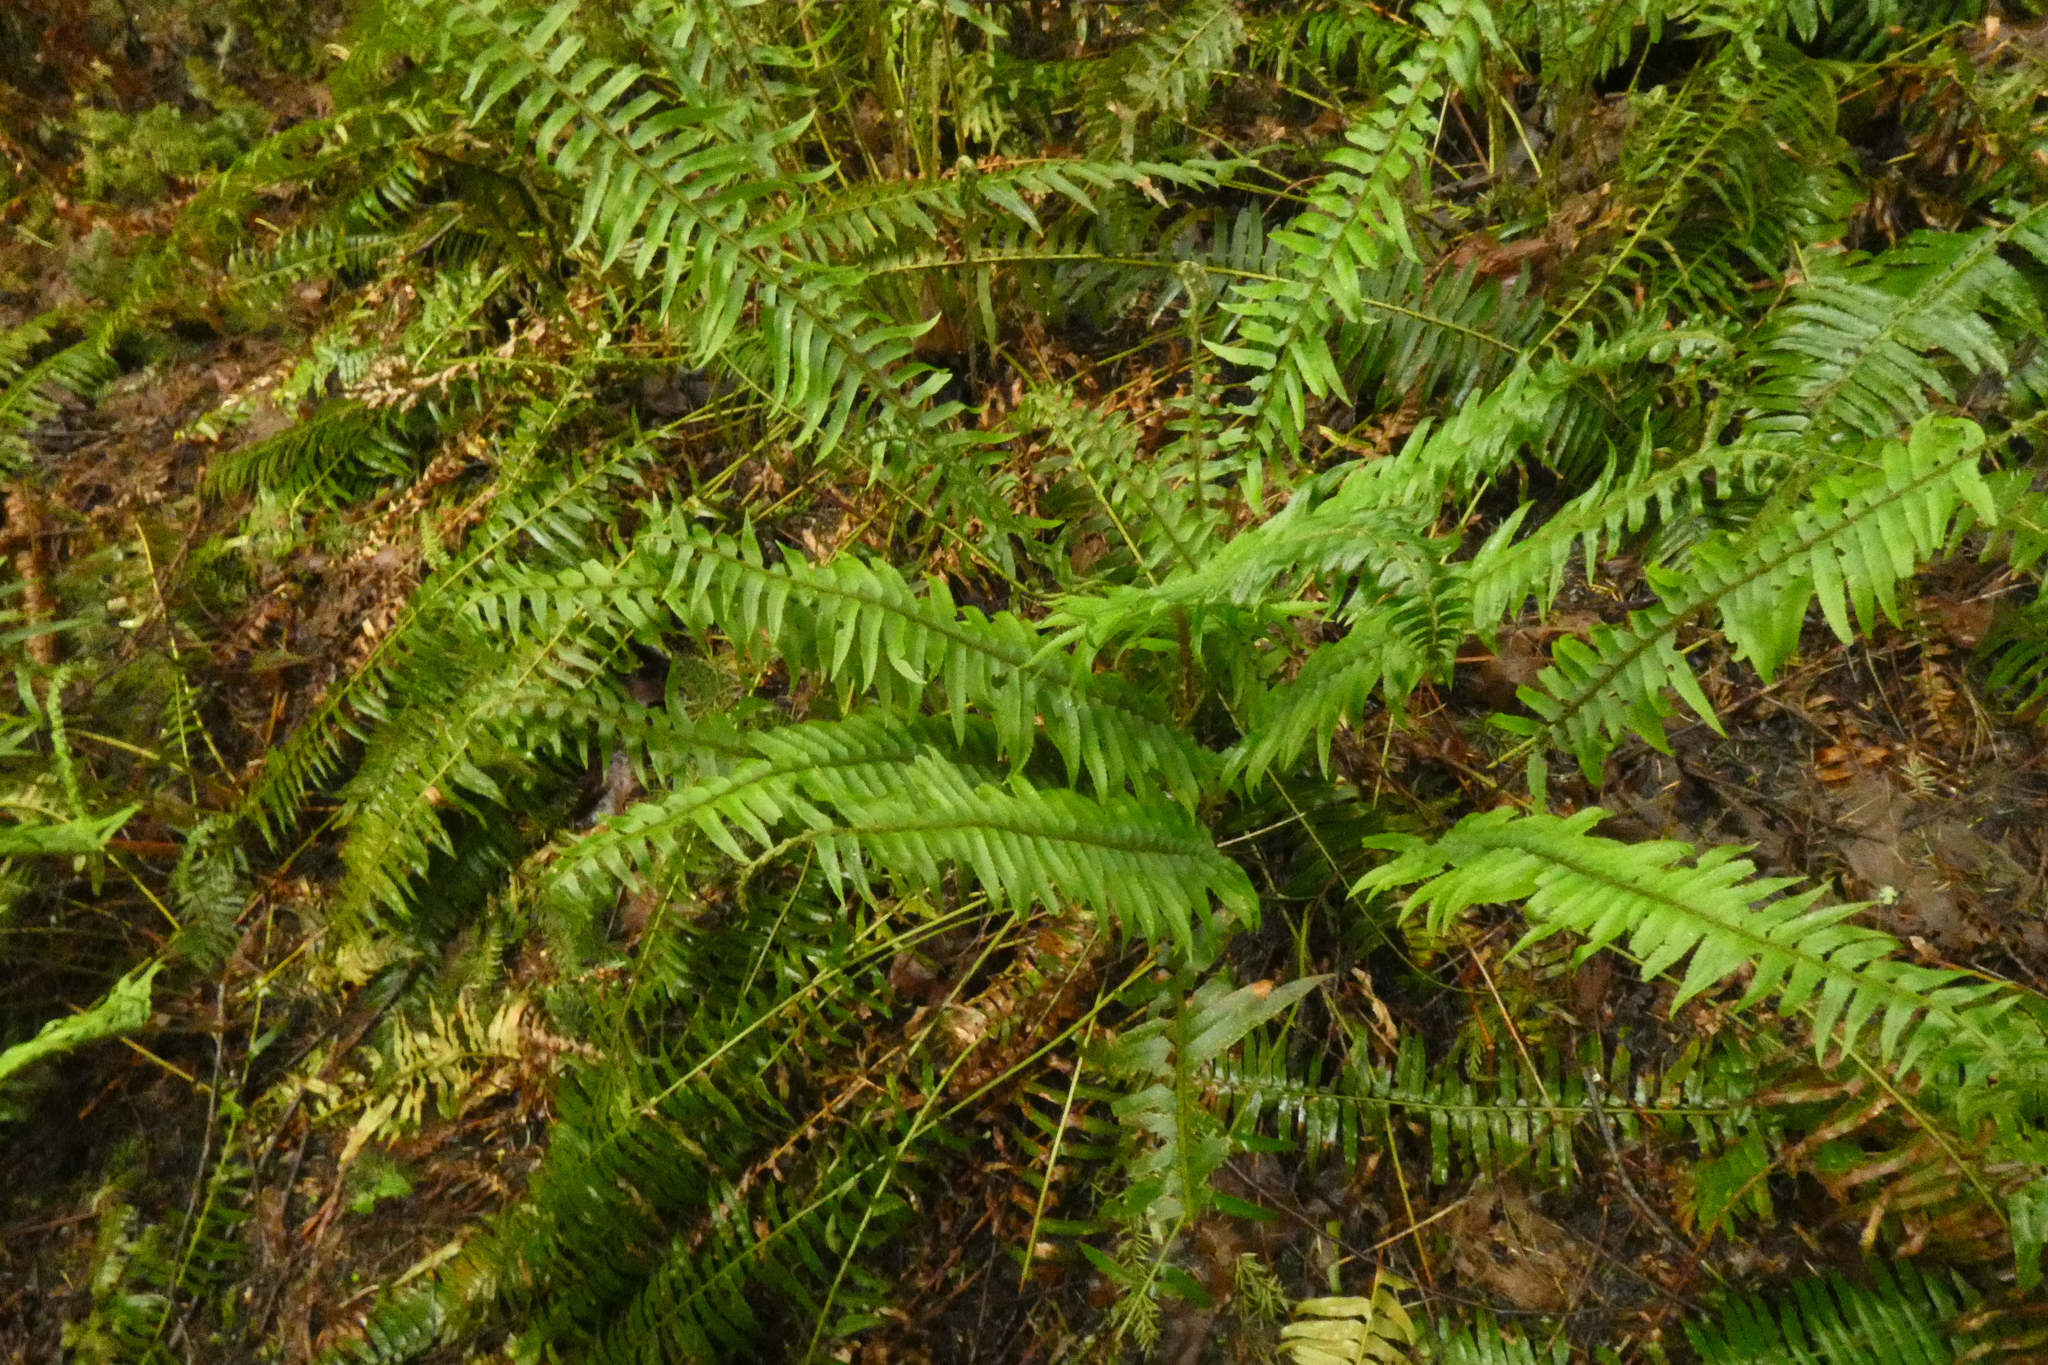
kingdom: Plantae
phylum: Tracheophyta
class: Polypodiopsida
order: Polypodiales
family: Dryopteridaceae
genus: Polystichum
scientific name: Polystichum munitum
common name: Western sword-fern
